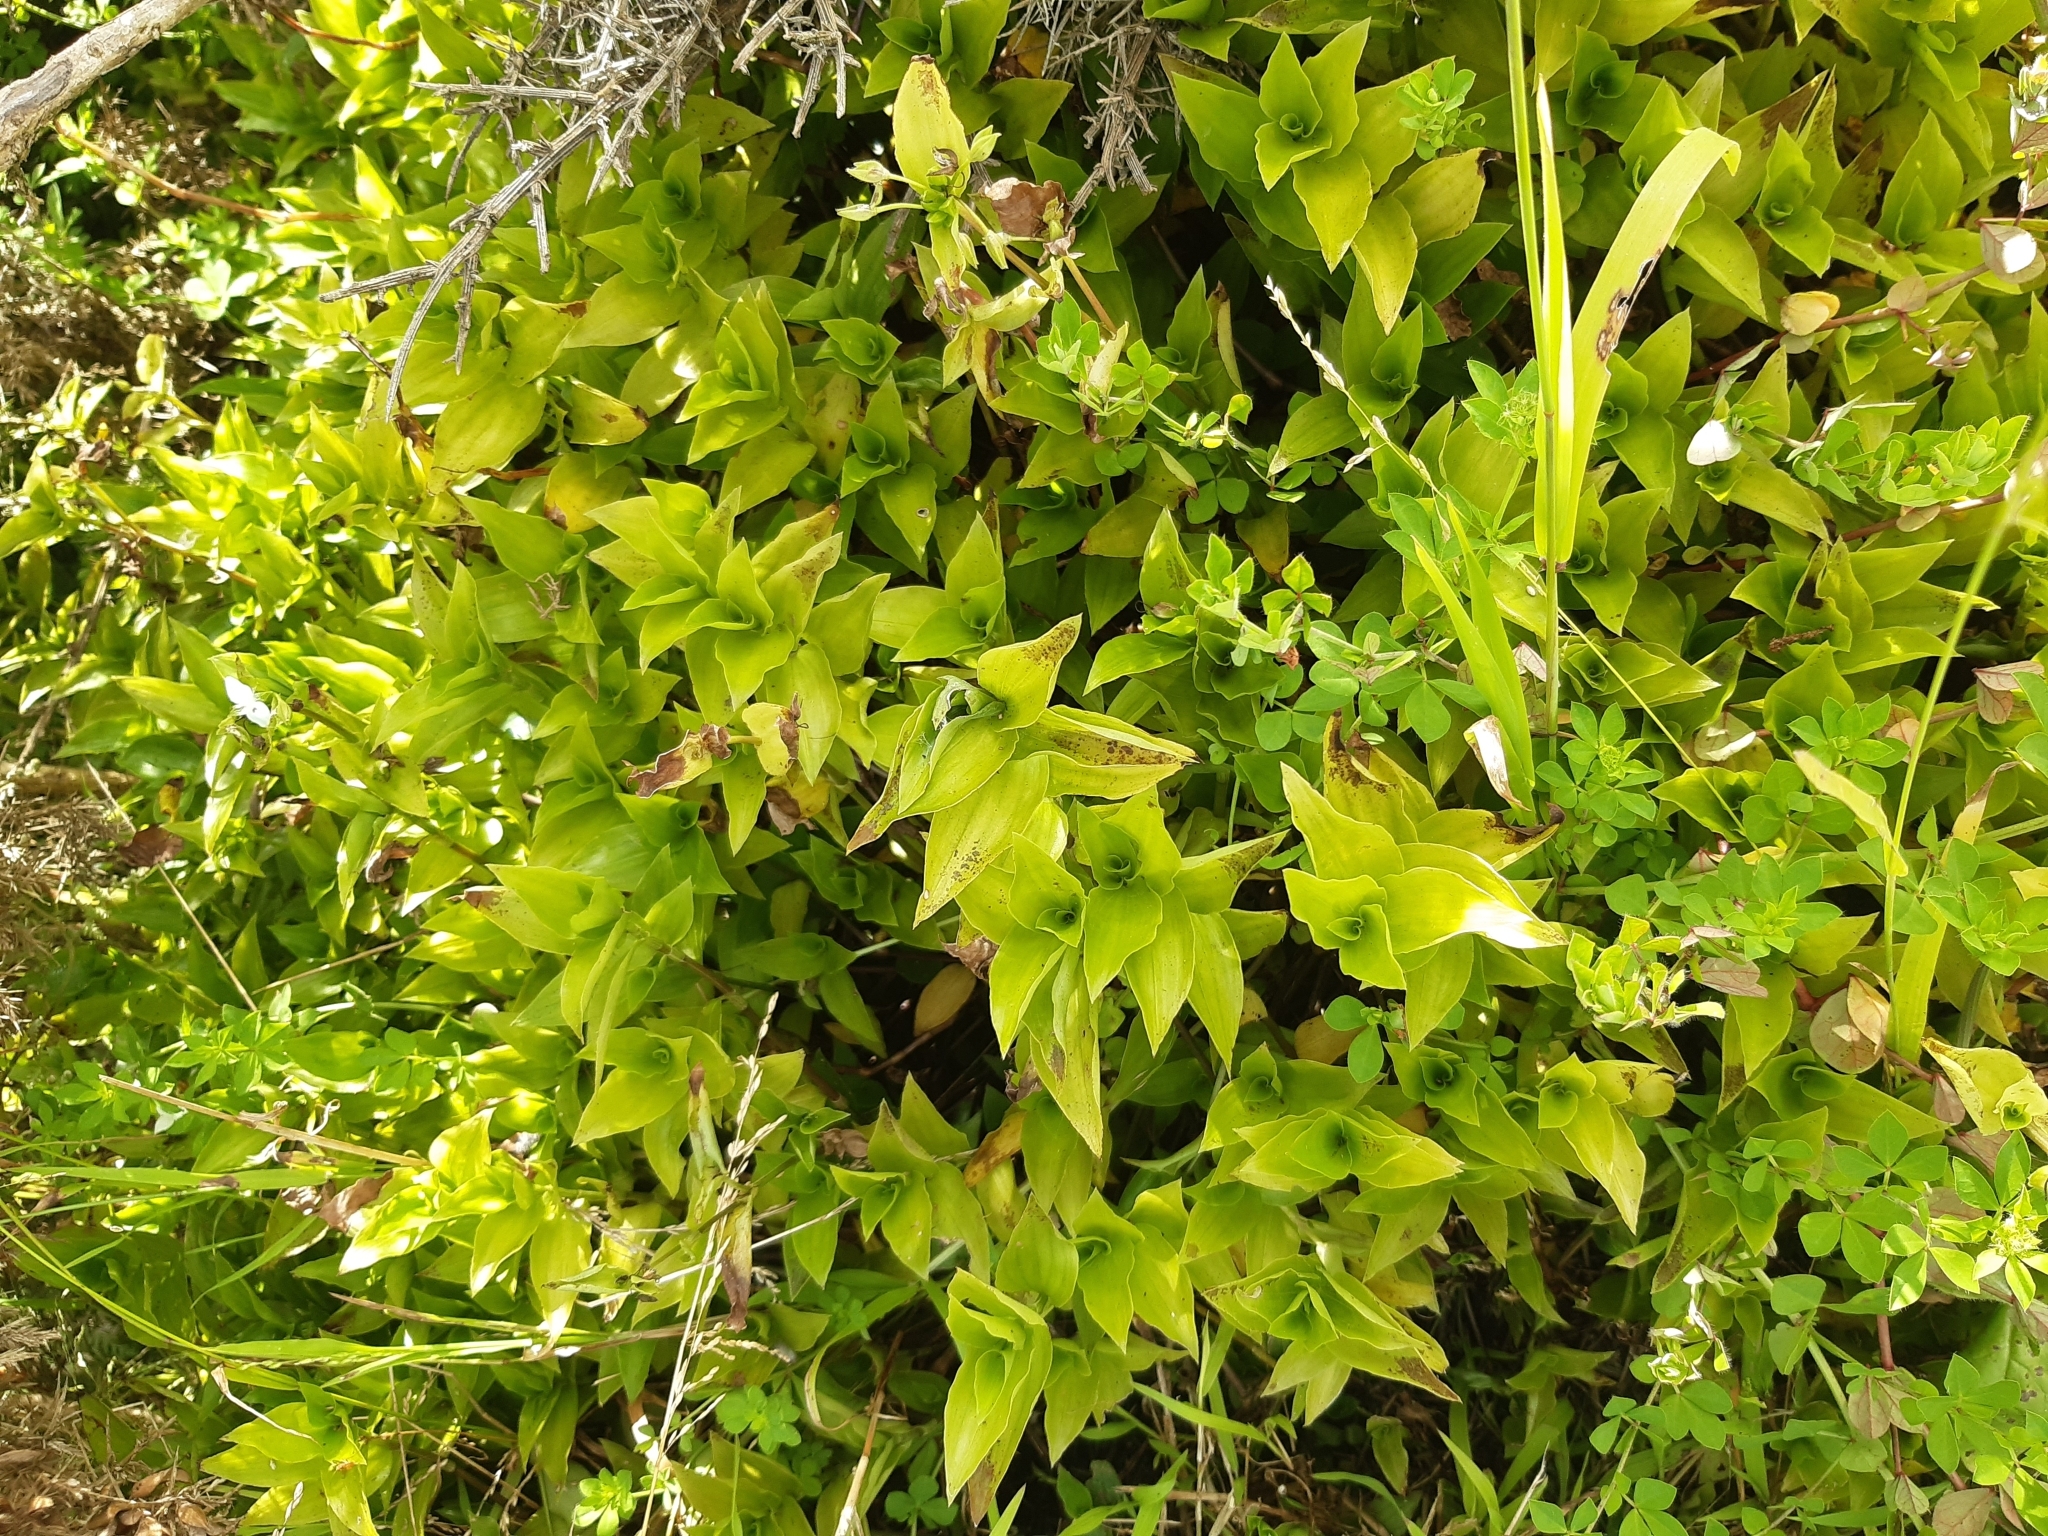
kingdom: Plantae
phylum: Tracheophyta
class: Liliopsida
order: Commelinales
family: Commelinaceae
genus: Tradescantia
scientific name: Tradescantia fluminensis
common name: Wandering-jew
